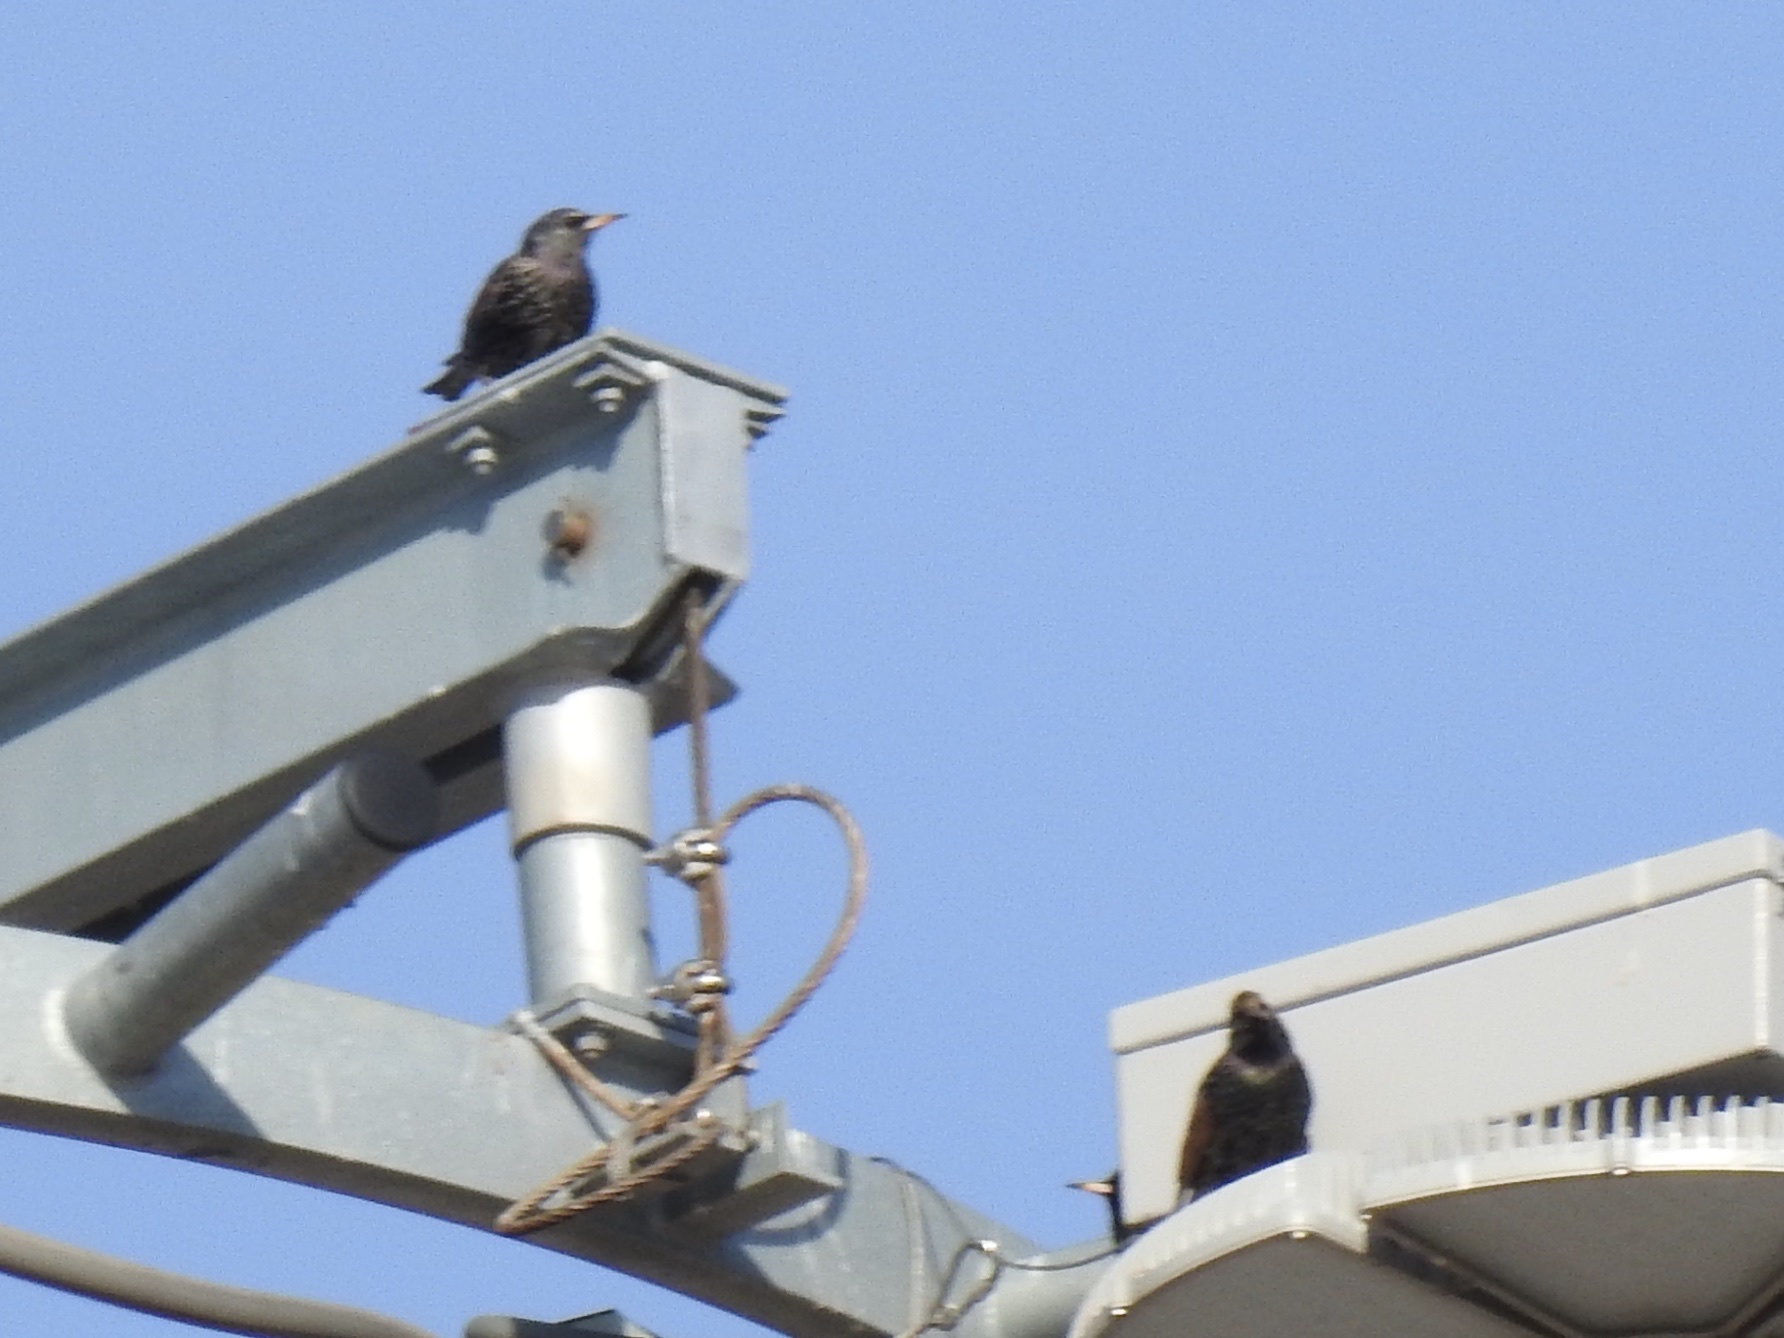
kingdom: Animalia
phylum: Chordata
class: Aves
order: Passeriformes
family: Sturnidae
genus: Sturnus
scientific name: Sturnus vulgaris
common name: Common starling
